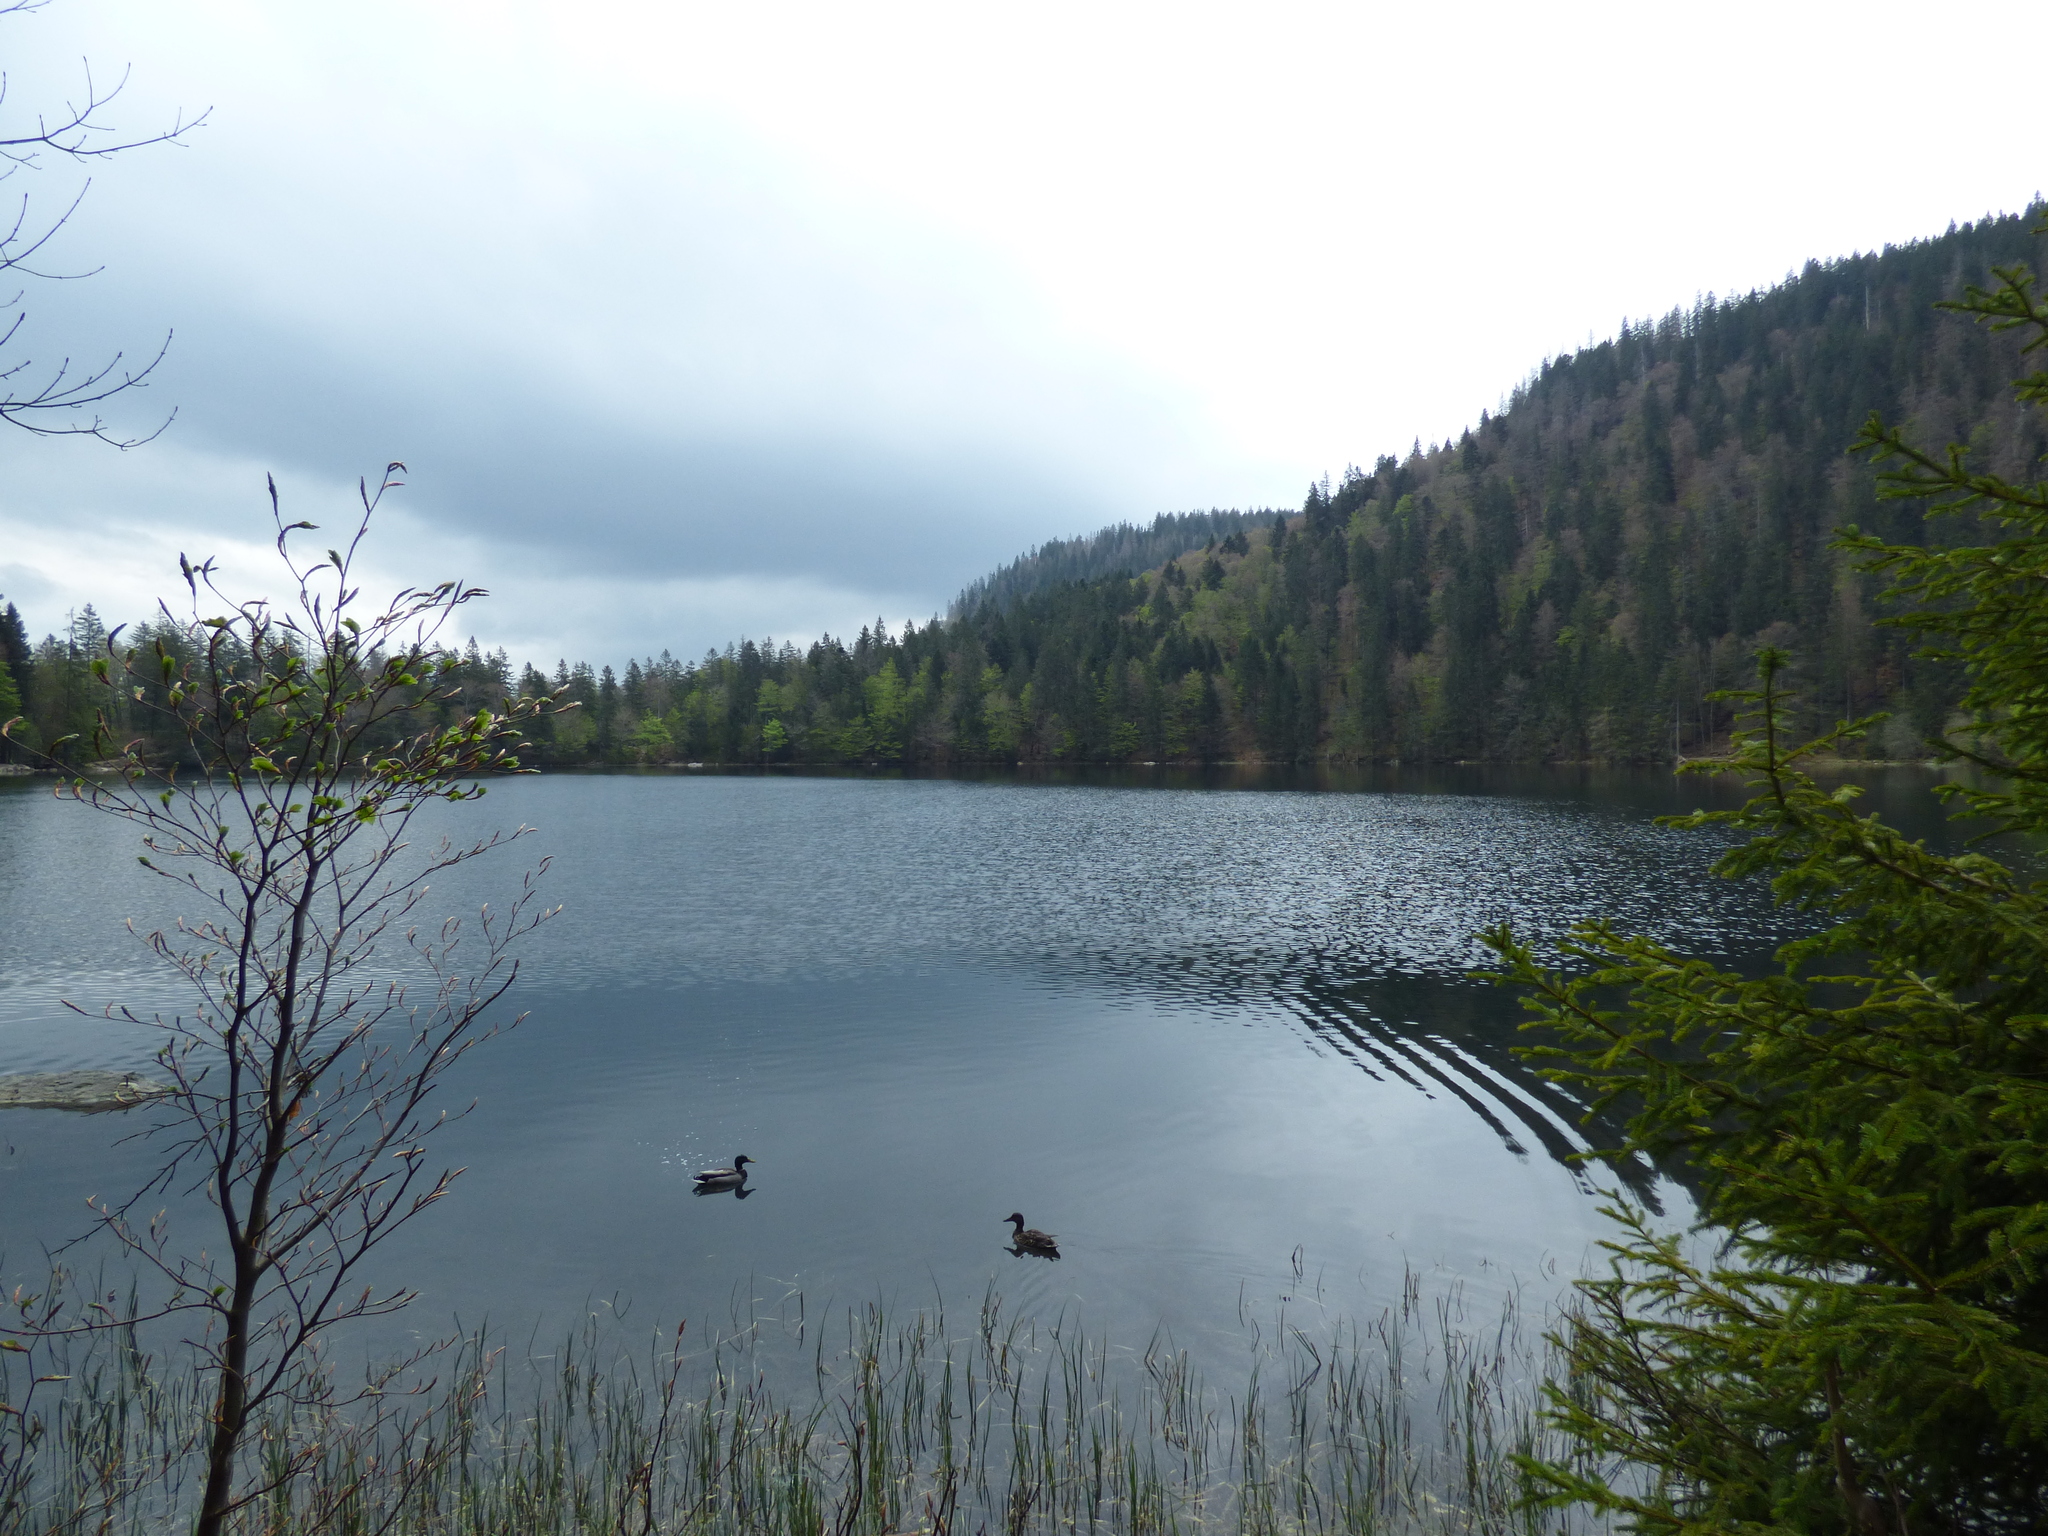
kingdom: Animalia
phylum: Chordata
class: Aves
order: Anseriformes
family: Anatidae
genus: Anas
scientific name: Anas platyrhynchos
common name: Mallard
